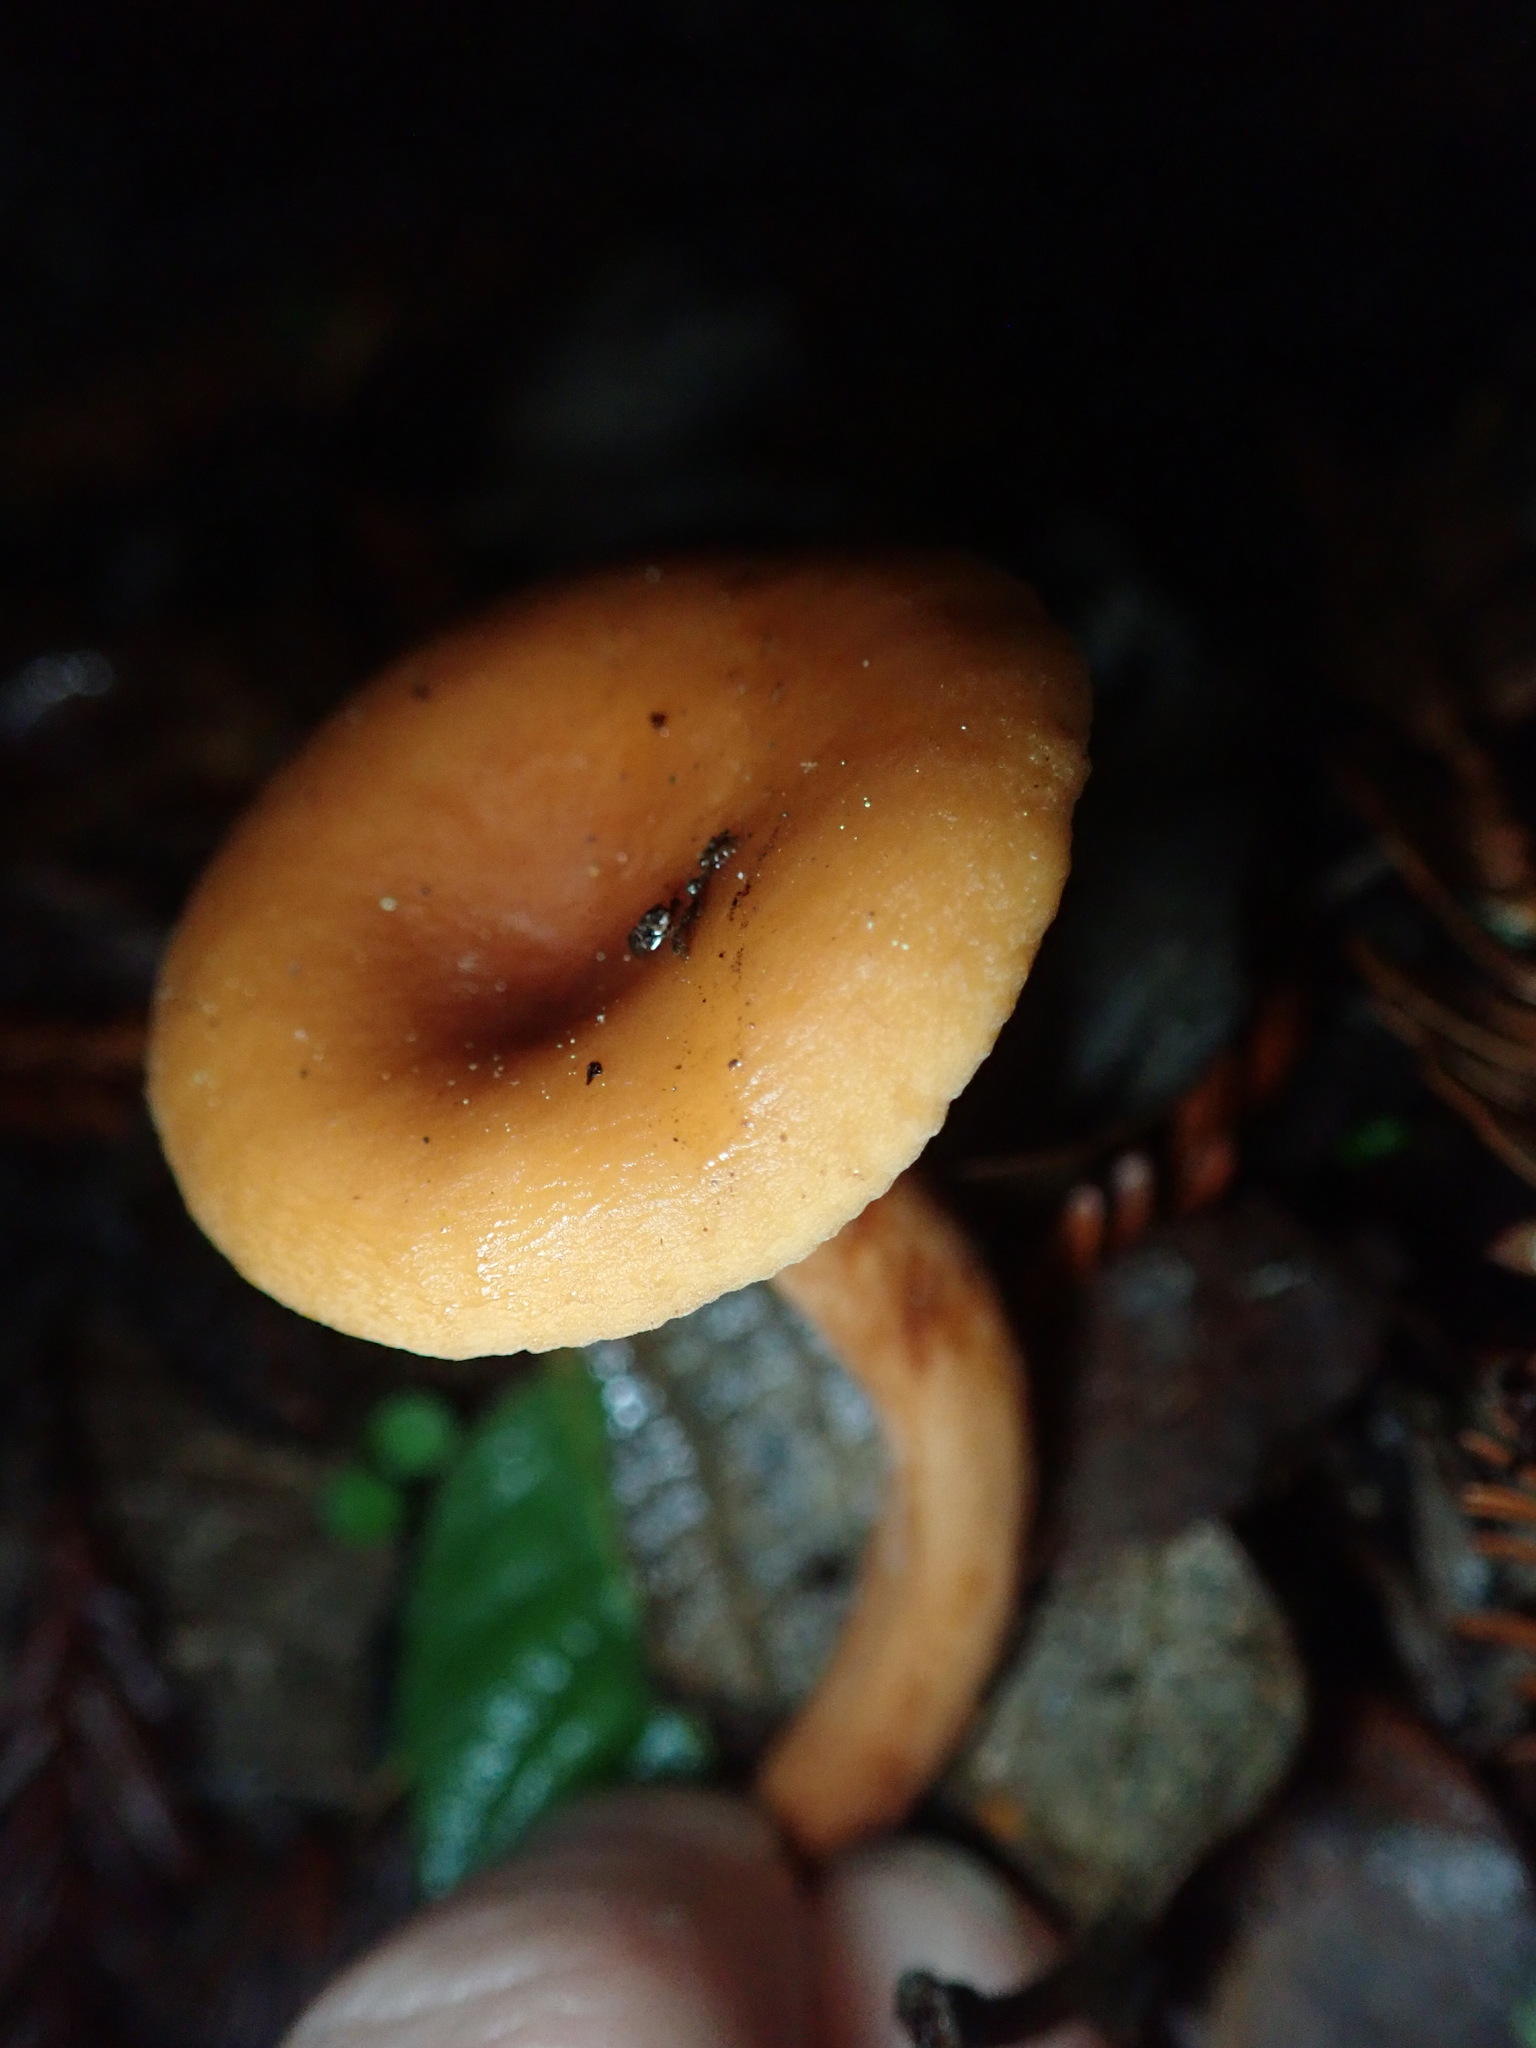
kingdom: Fungi
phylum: Basidiomycota
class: Agaricomycetes
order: Russulales
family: Russulaceae
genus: Lactarius
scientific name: Lactarius rubidus
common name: Candy cap
